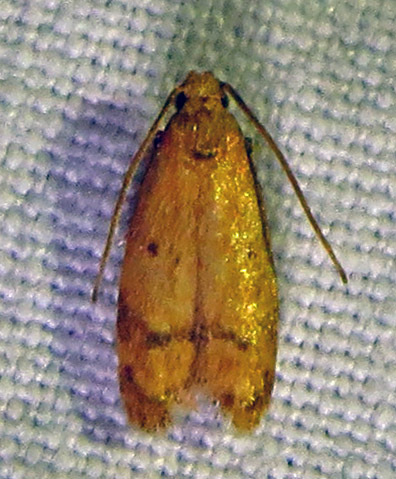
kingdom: Animalia
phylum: Arthropoda
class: Insecta
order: Lepidoptera
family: Autostichidae
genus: Gerdana
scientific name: Gerdana caritella
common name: Gerdana moth
